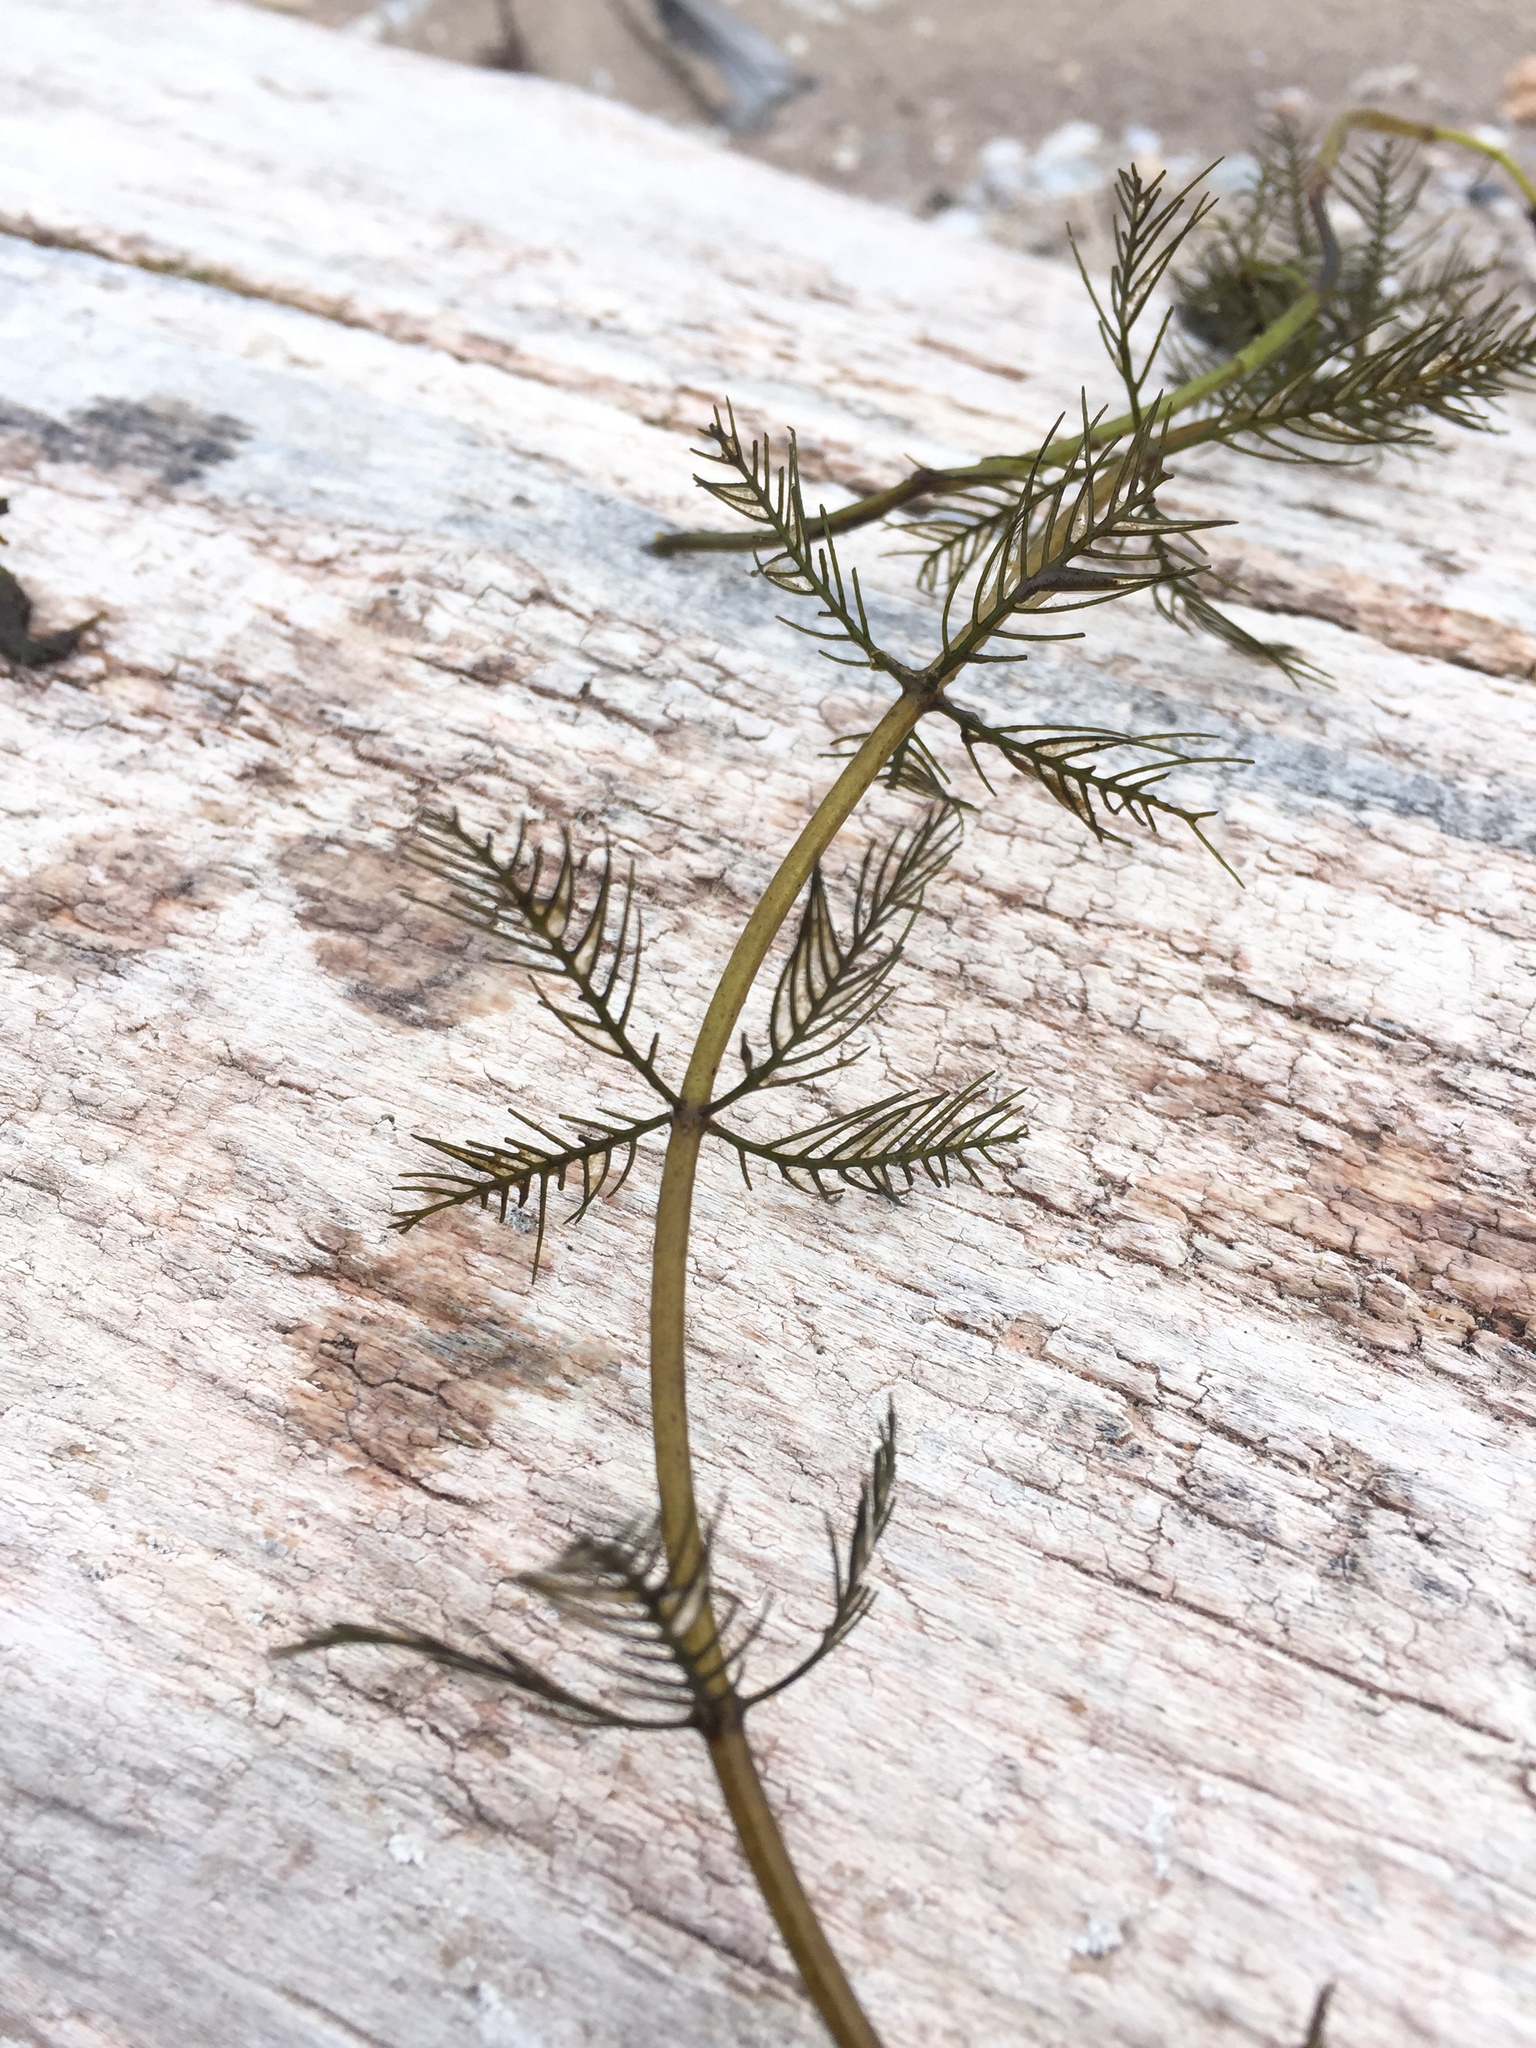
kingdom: Plantae
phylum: Tracheophyta
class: Magnoliopsida
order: Saxifragales
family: Haloragaceae
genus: Myriophyllum
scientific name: Myriophyllum spicatum
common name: Spiked water-milfoil
